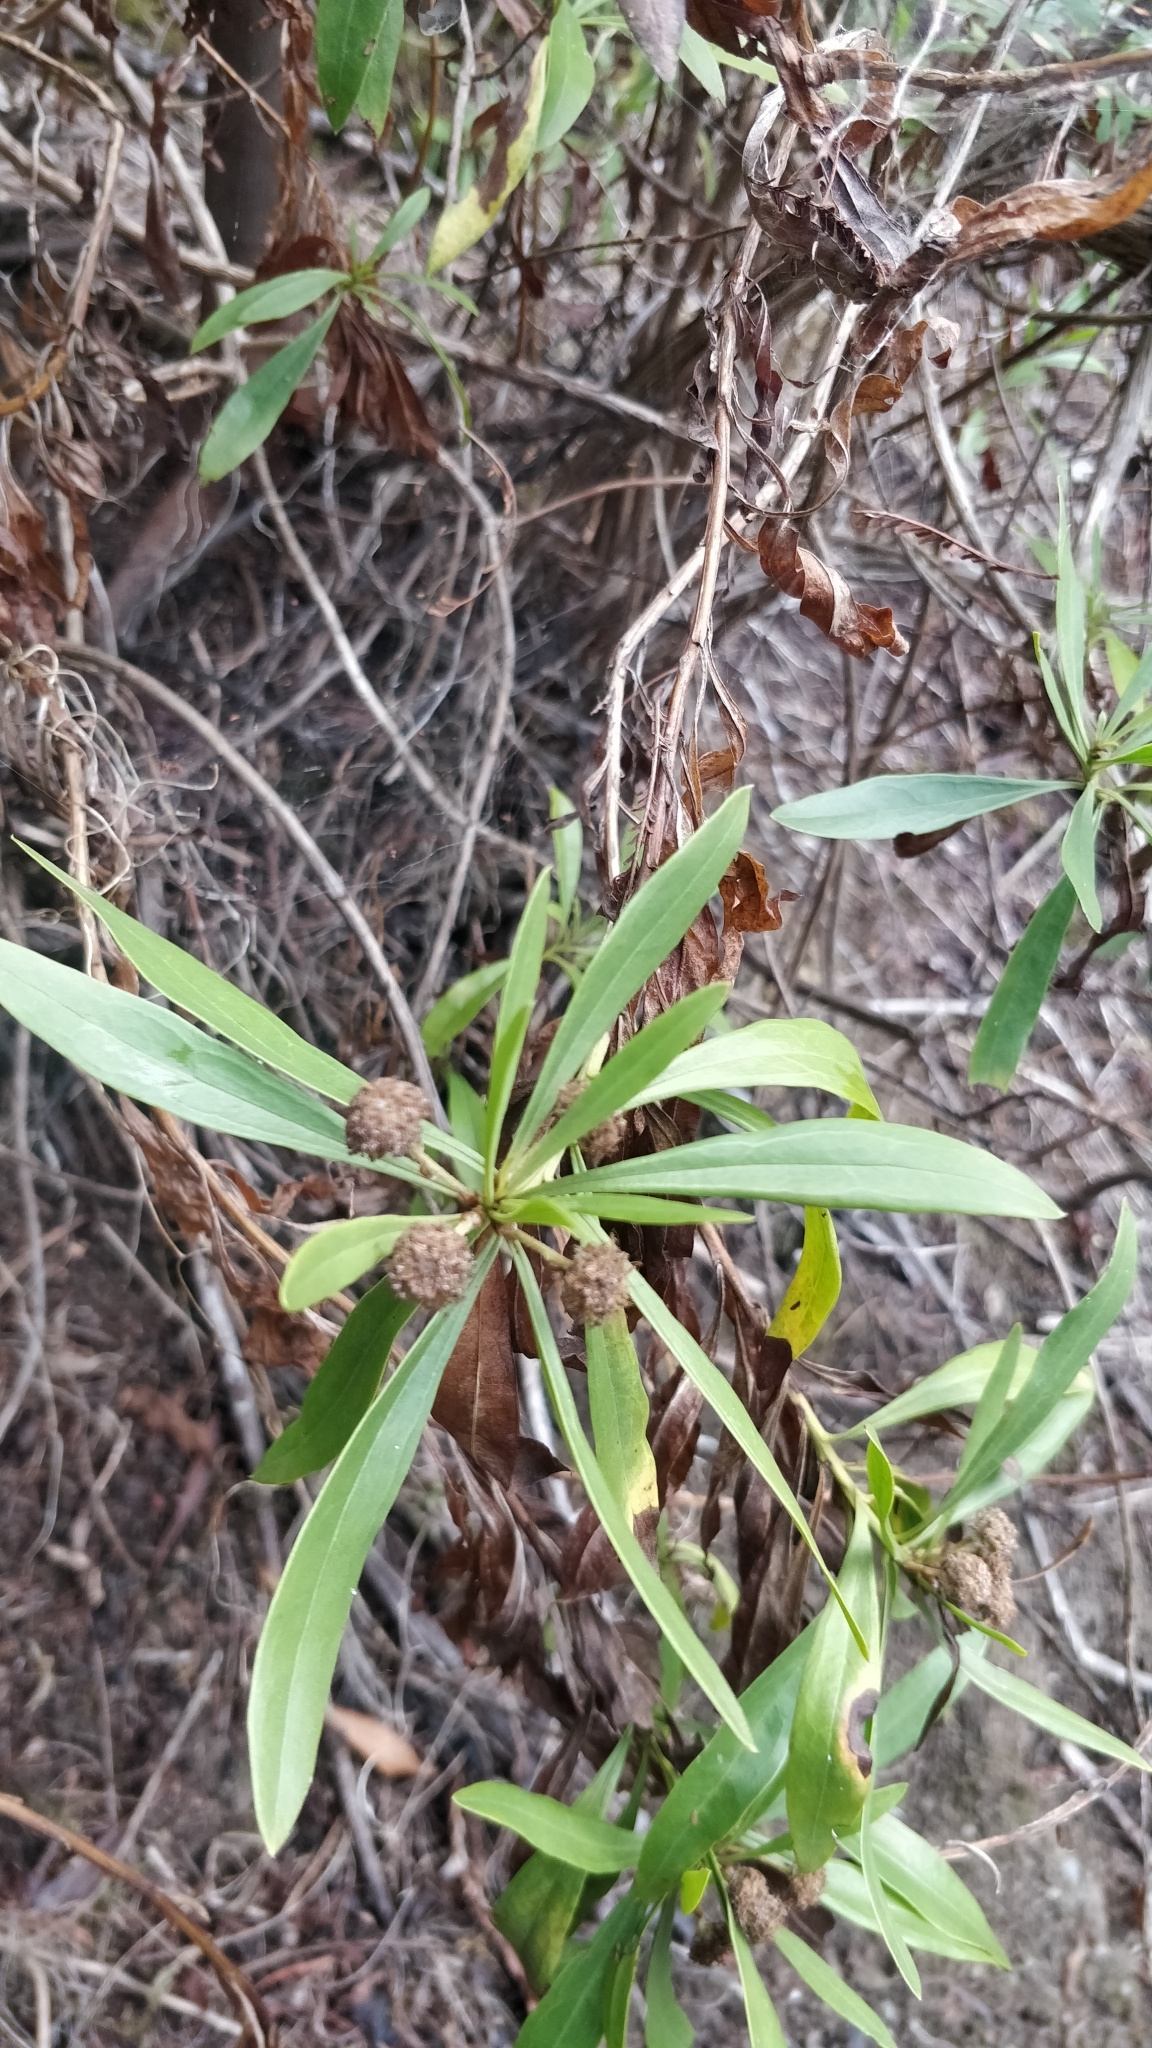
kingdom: Plantae
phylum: Tracheophyta
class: Magnoliopsida
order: Lamiales
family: Plantaginaceae
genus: Globularia
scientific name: Globularia salicina
